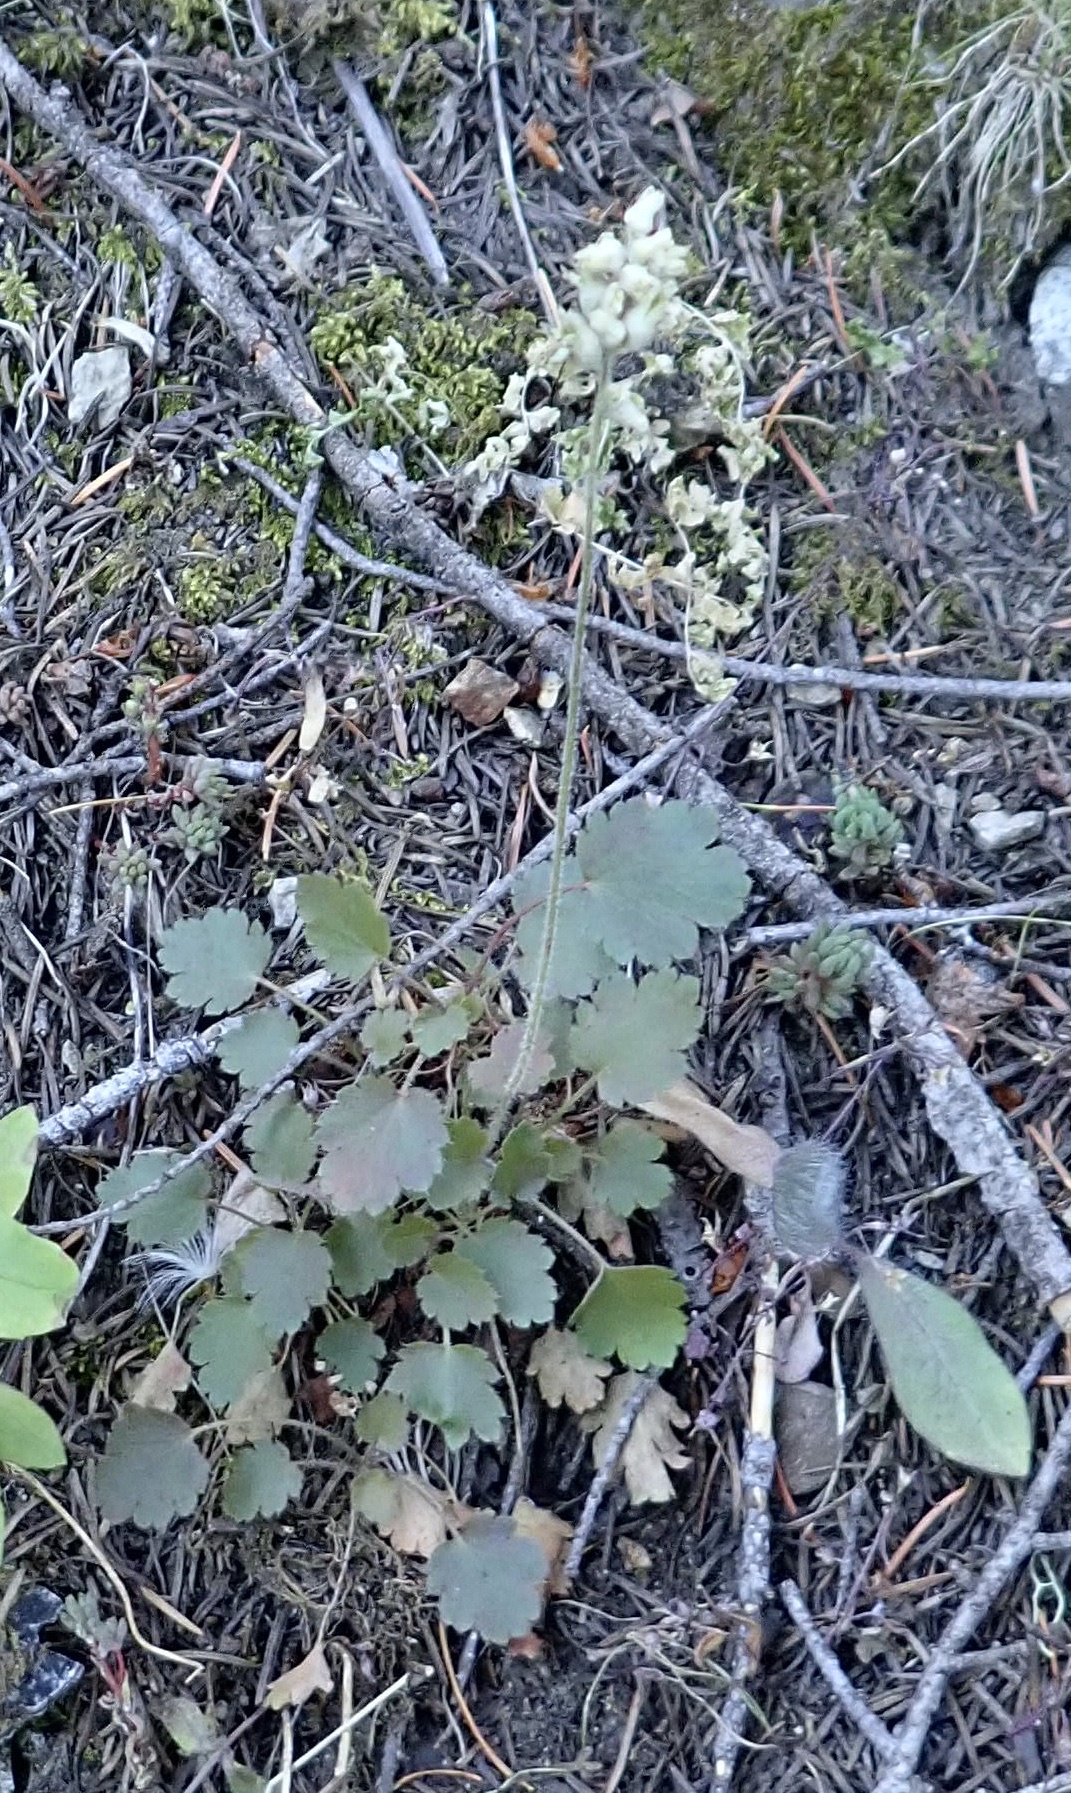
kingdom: Plantae
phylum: Tracheophyta
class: Magnoliopsida
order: Saxifragales
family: Saxifragaceae
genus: Heuchera
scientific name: Heuchera cylindrica
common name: Mat alumroot
